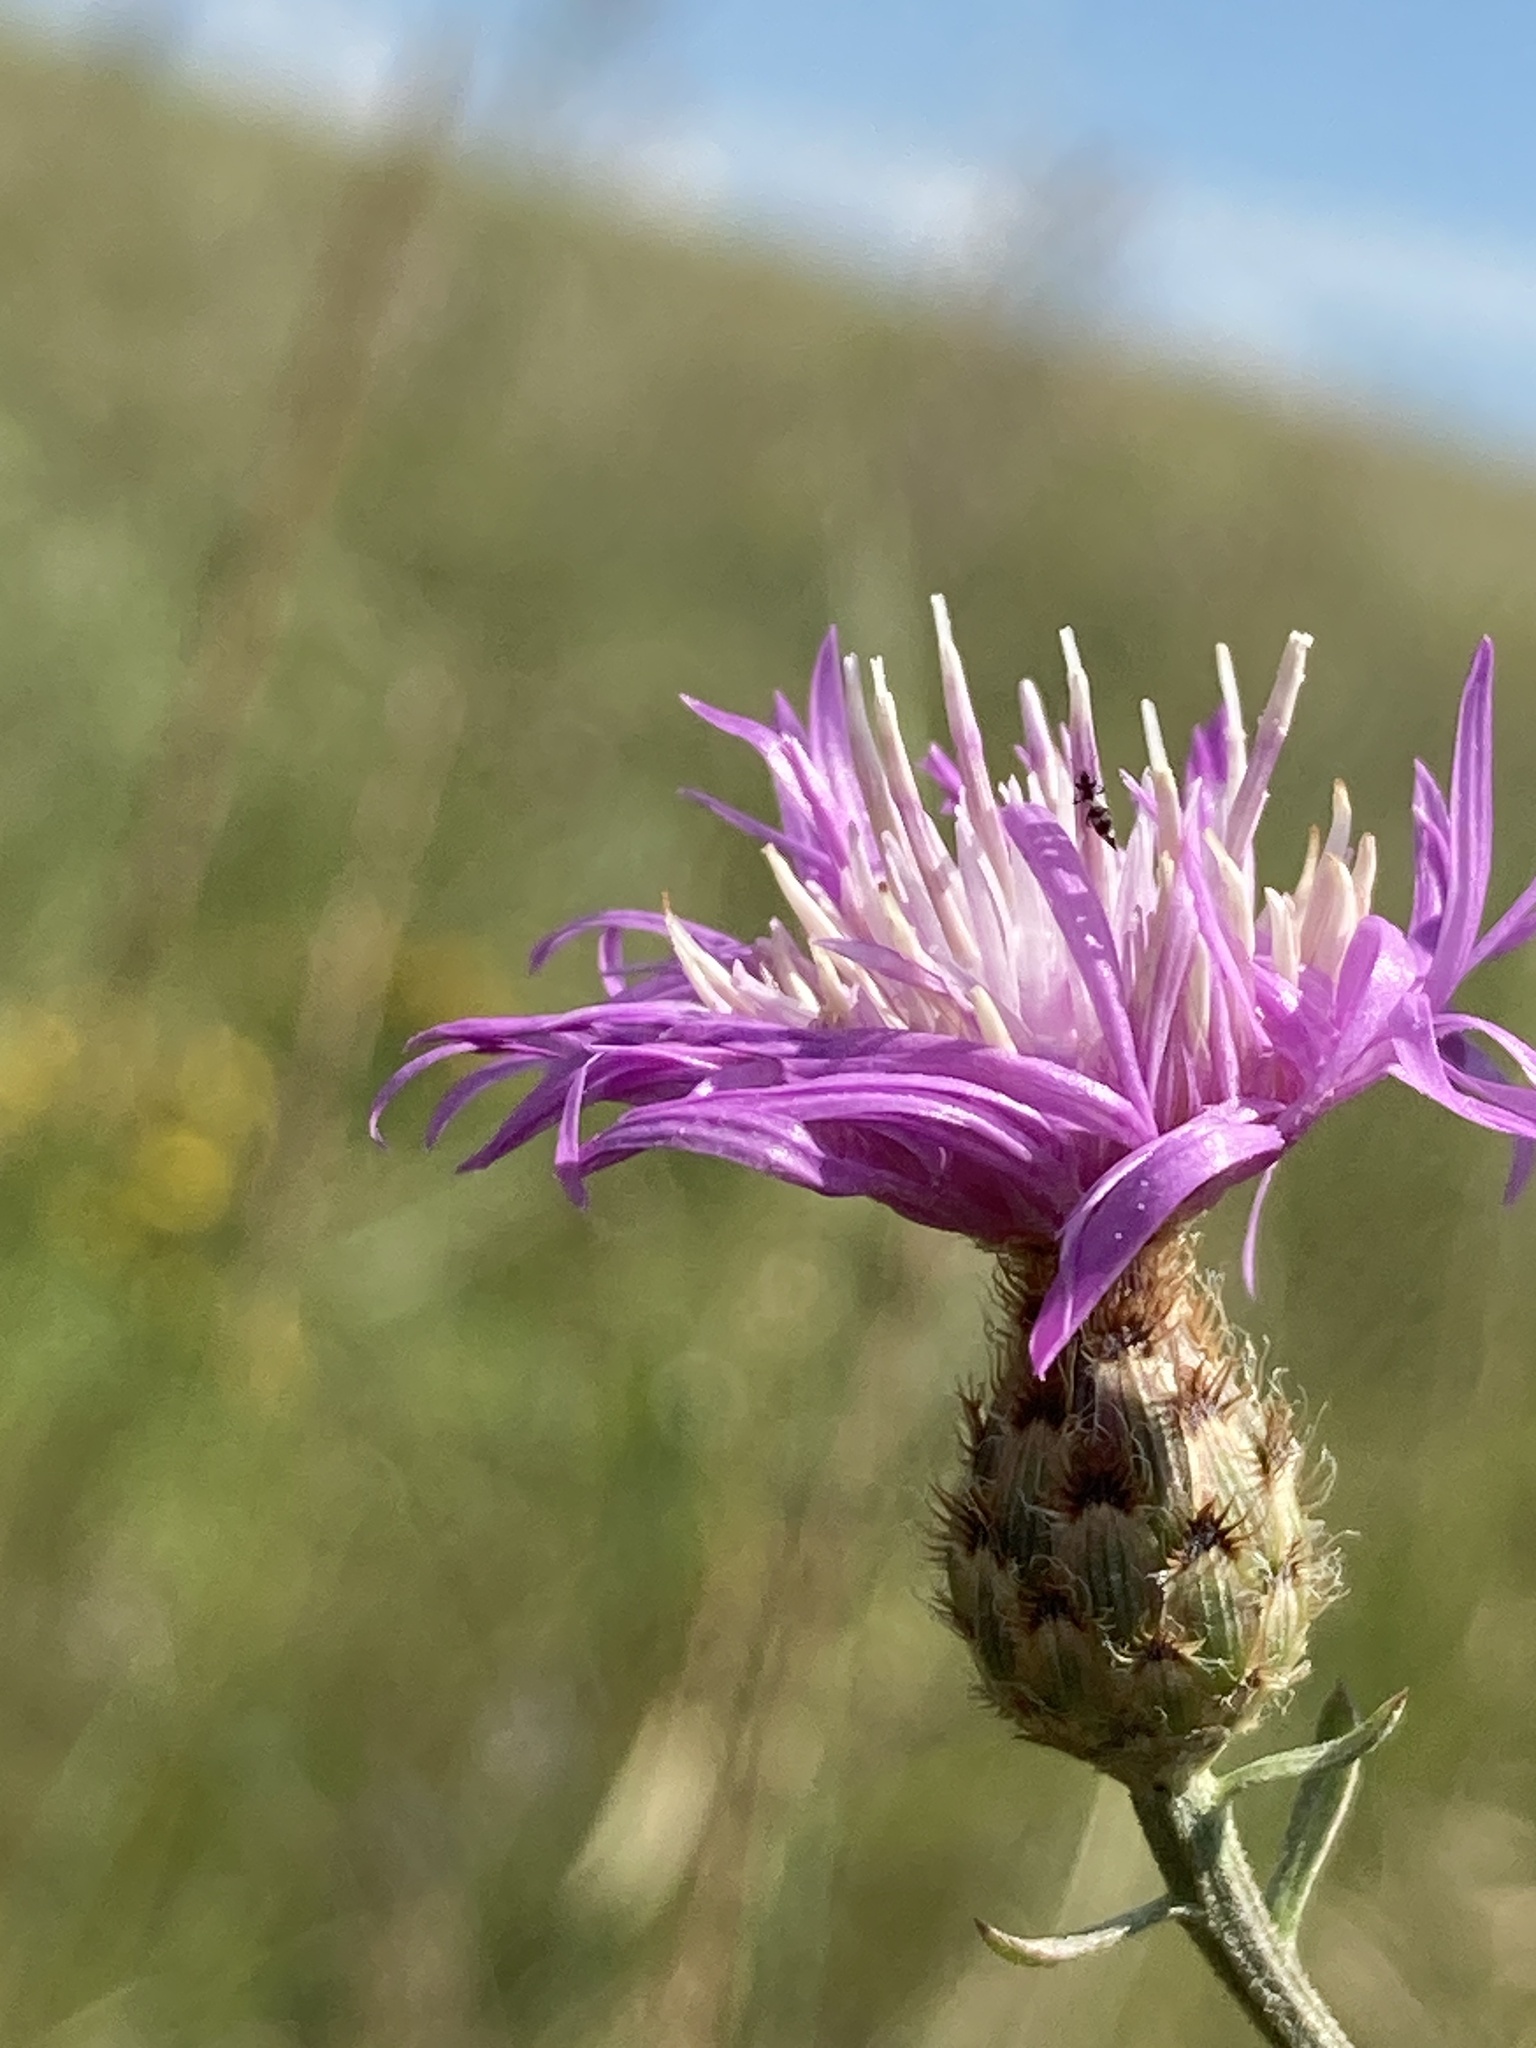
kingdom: Plantae
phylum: Tracheophyta
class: Magnoliopsida
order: Asterales
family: Asteraceae
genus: Centaurea
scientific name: Centaurea stoebe
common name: Spotted knapweed
